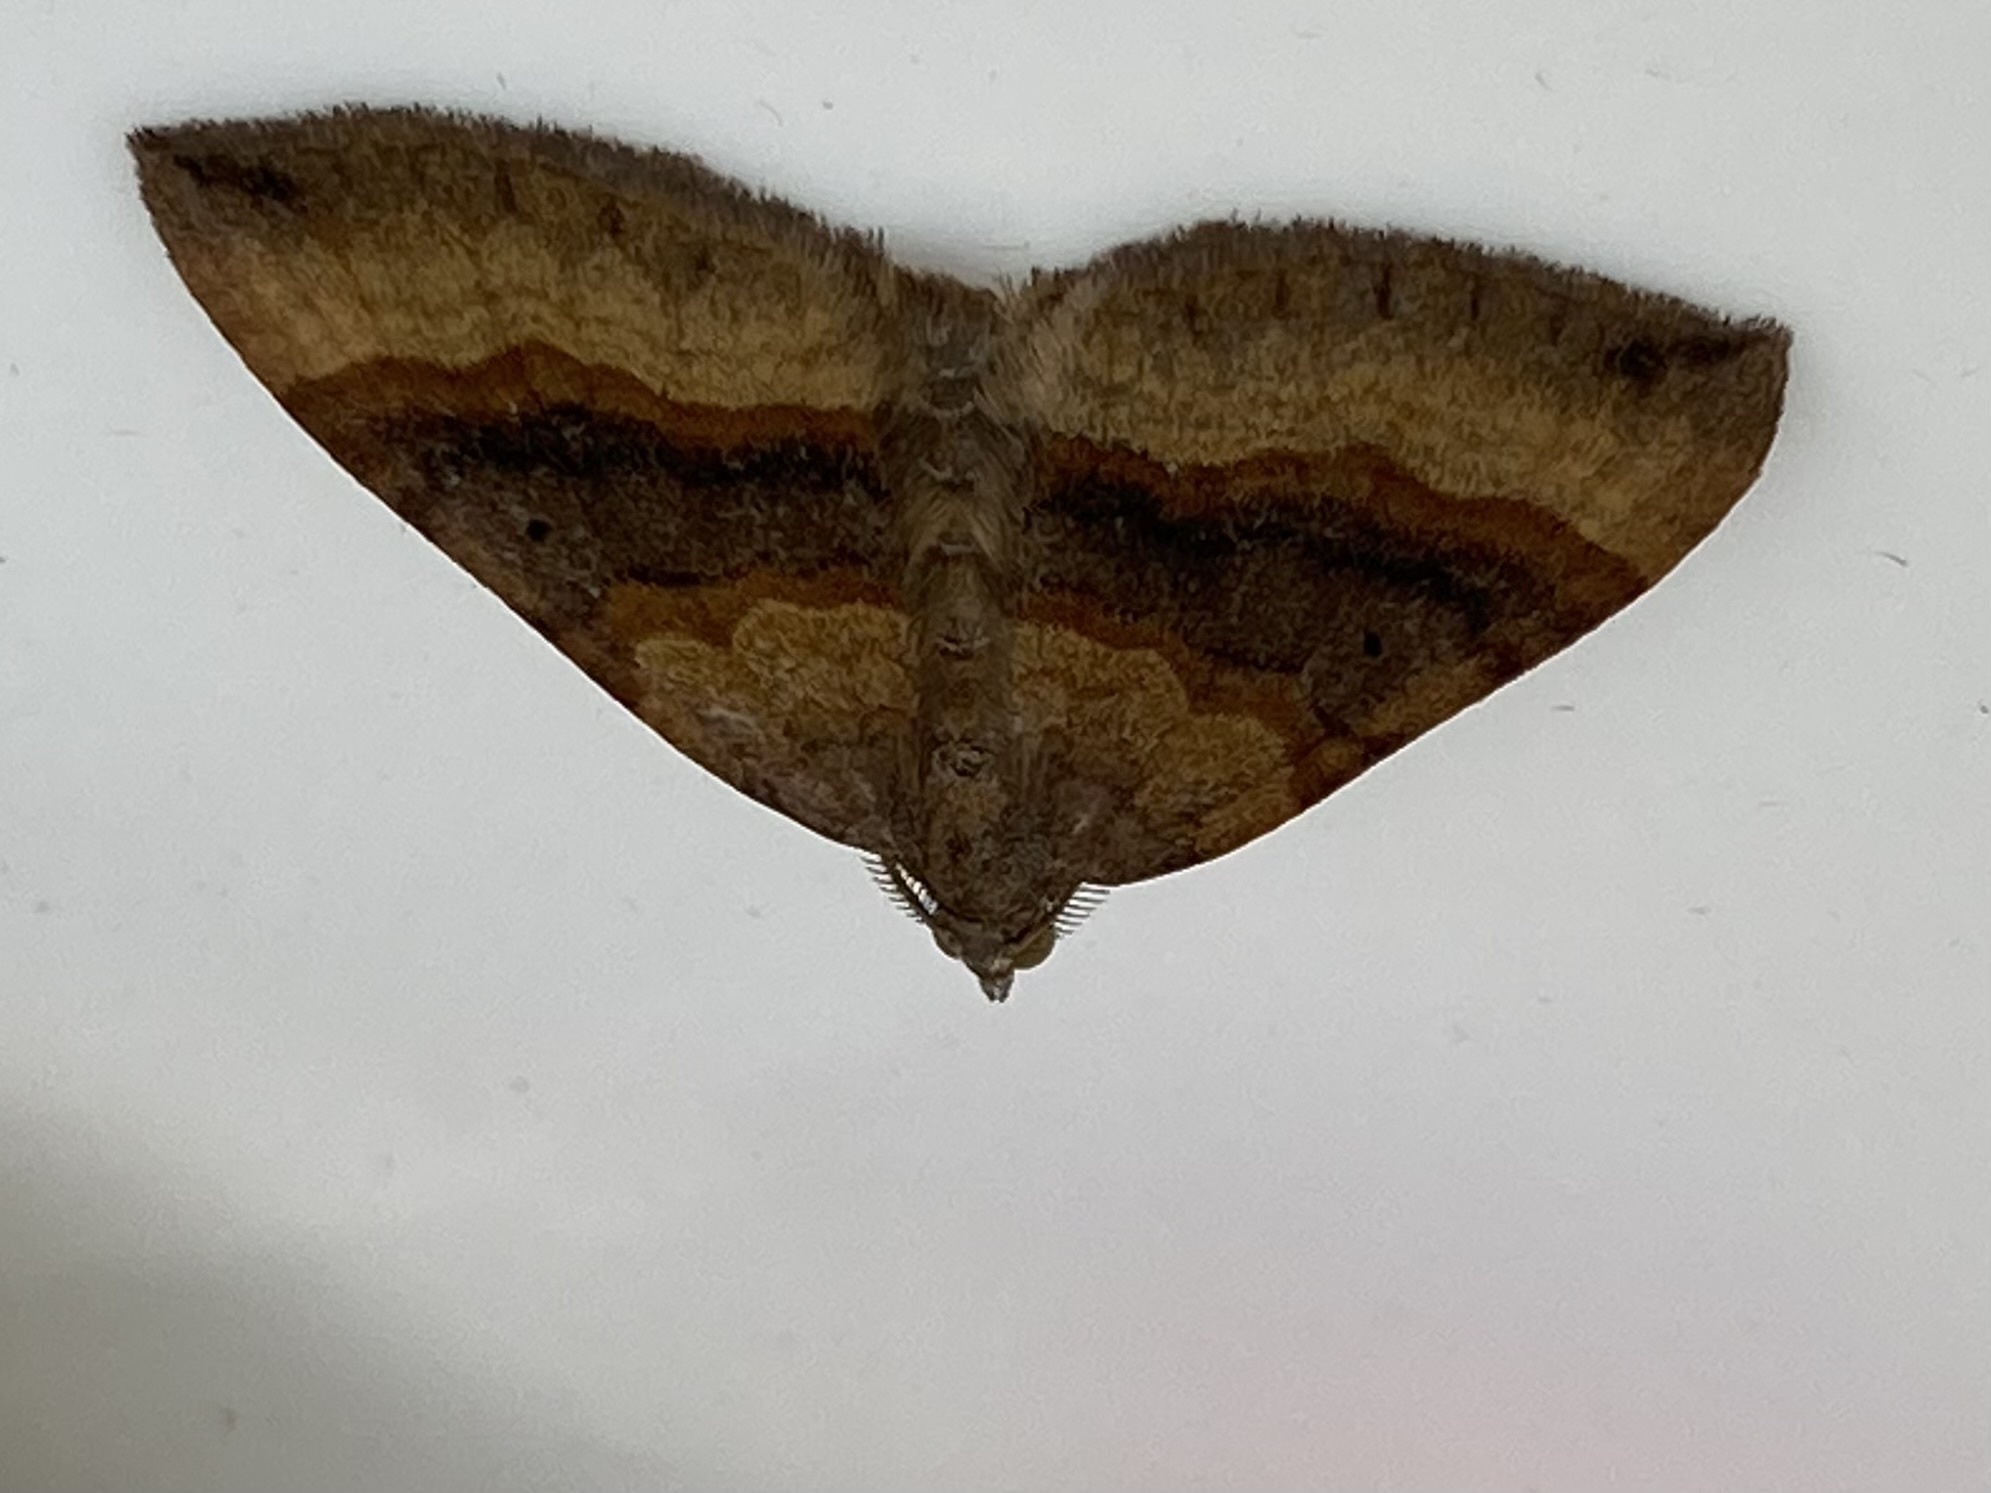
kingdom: Animalia
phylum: Arthropoda
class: Insecta
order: Lepidoptera
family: Geometridae
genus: Scotopteryx
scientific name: Scotopteryx chenopodiata
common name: Shaded broad-bar
